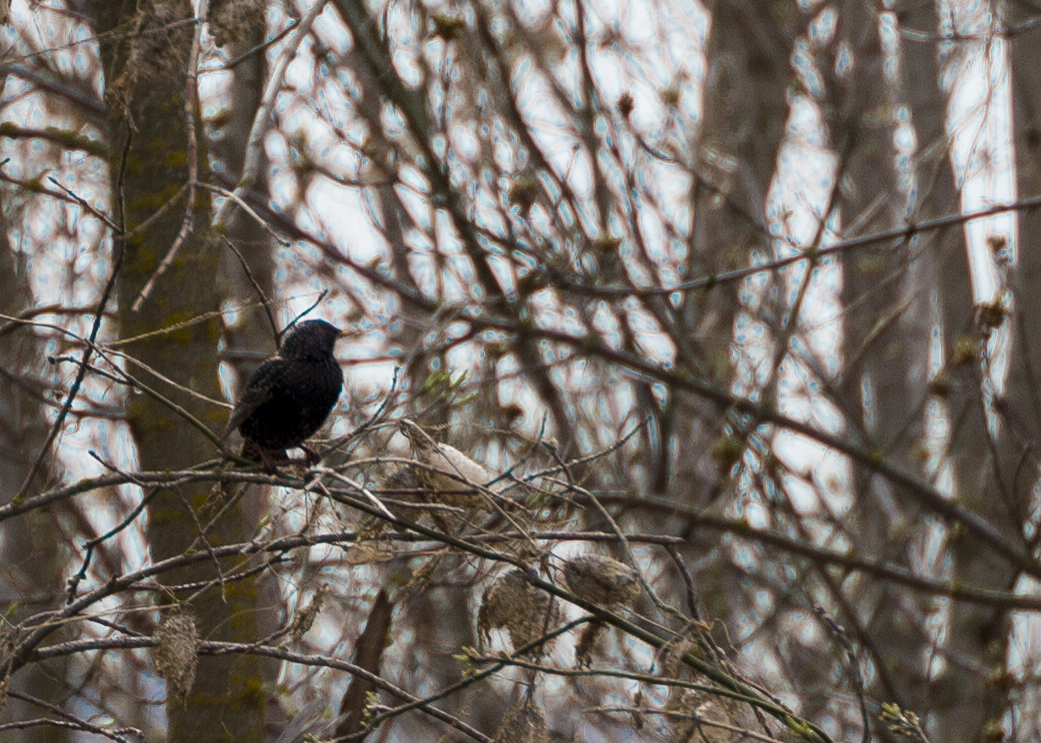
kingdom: Animalia
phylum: Chordata
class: Aves
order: Passeriformes
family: Sturnidae
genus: Sturnus
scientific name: Sturnus vulgaris
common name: Common starling
